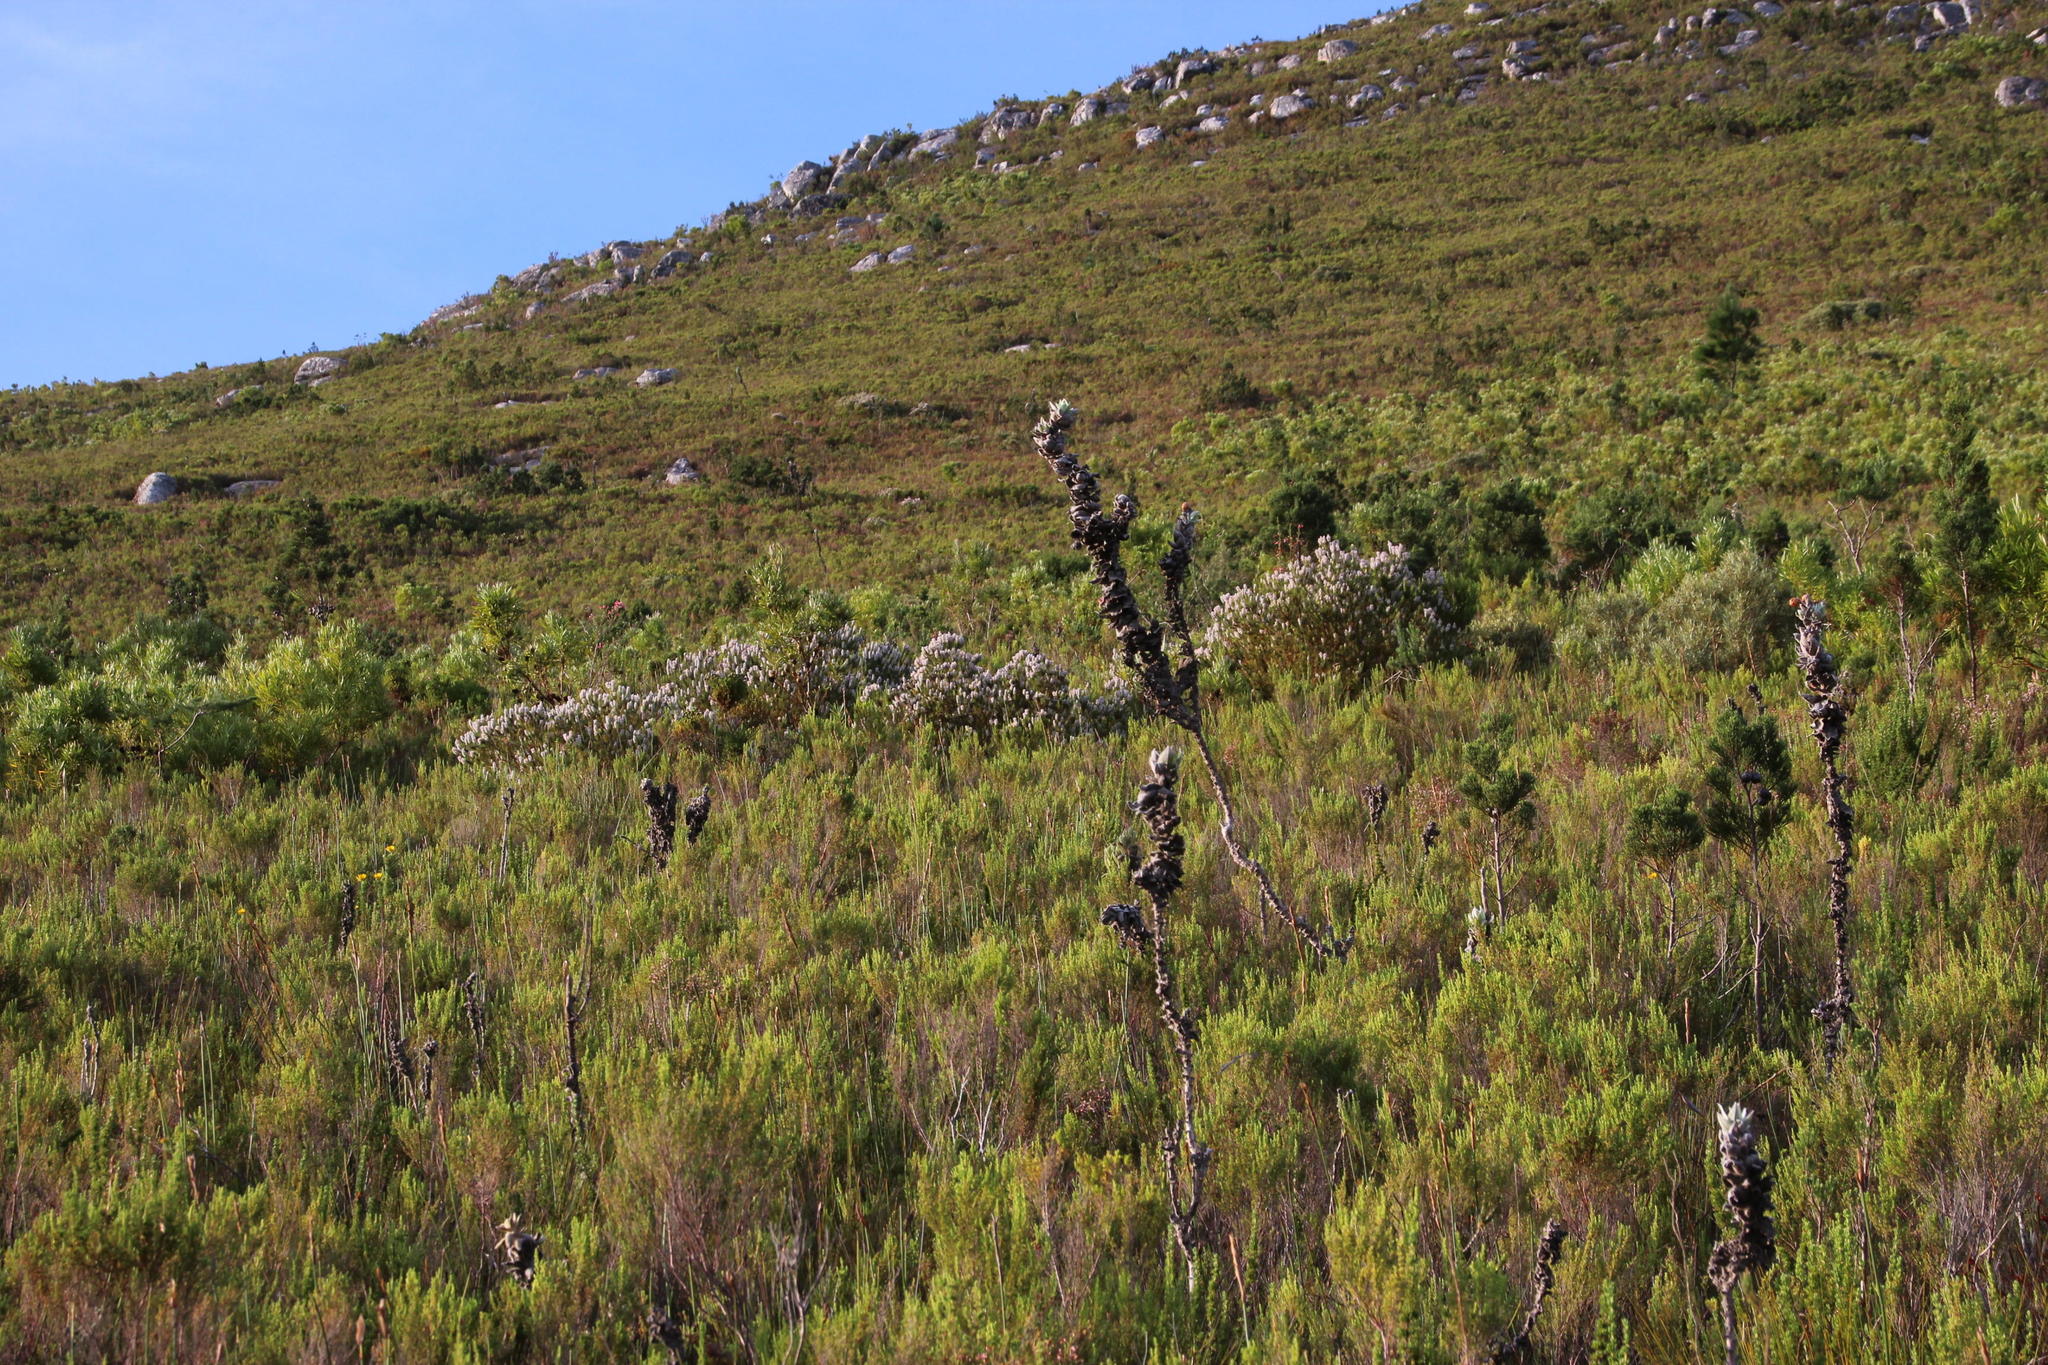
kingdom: Plantae
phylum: Tracheophyta
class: Magnoliopsida
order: Asterales
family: Asteraceae
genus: Syncarpha
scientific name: Syncarpha eximia
